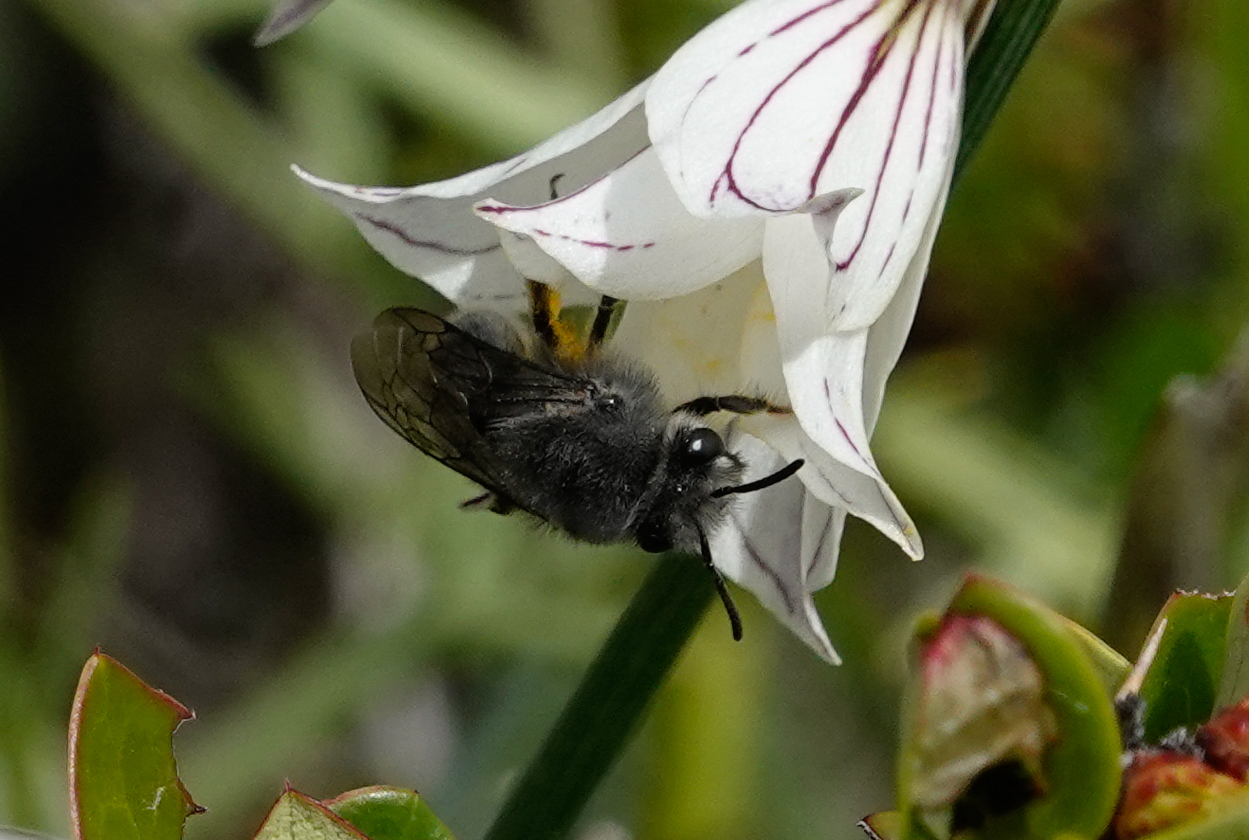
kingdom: Animalia
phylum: Arthropoda
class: Insecta
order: Hymenoptera
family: Colletidae
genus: Colletes
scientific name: Colletes cyanescens
